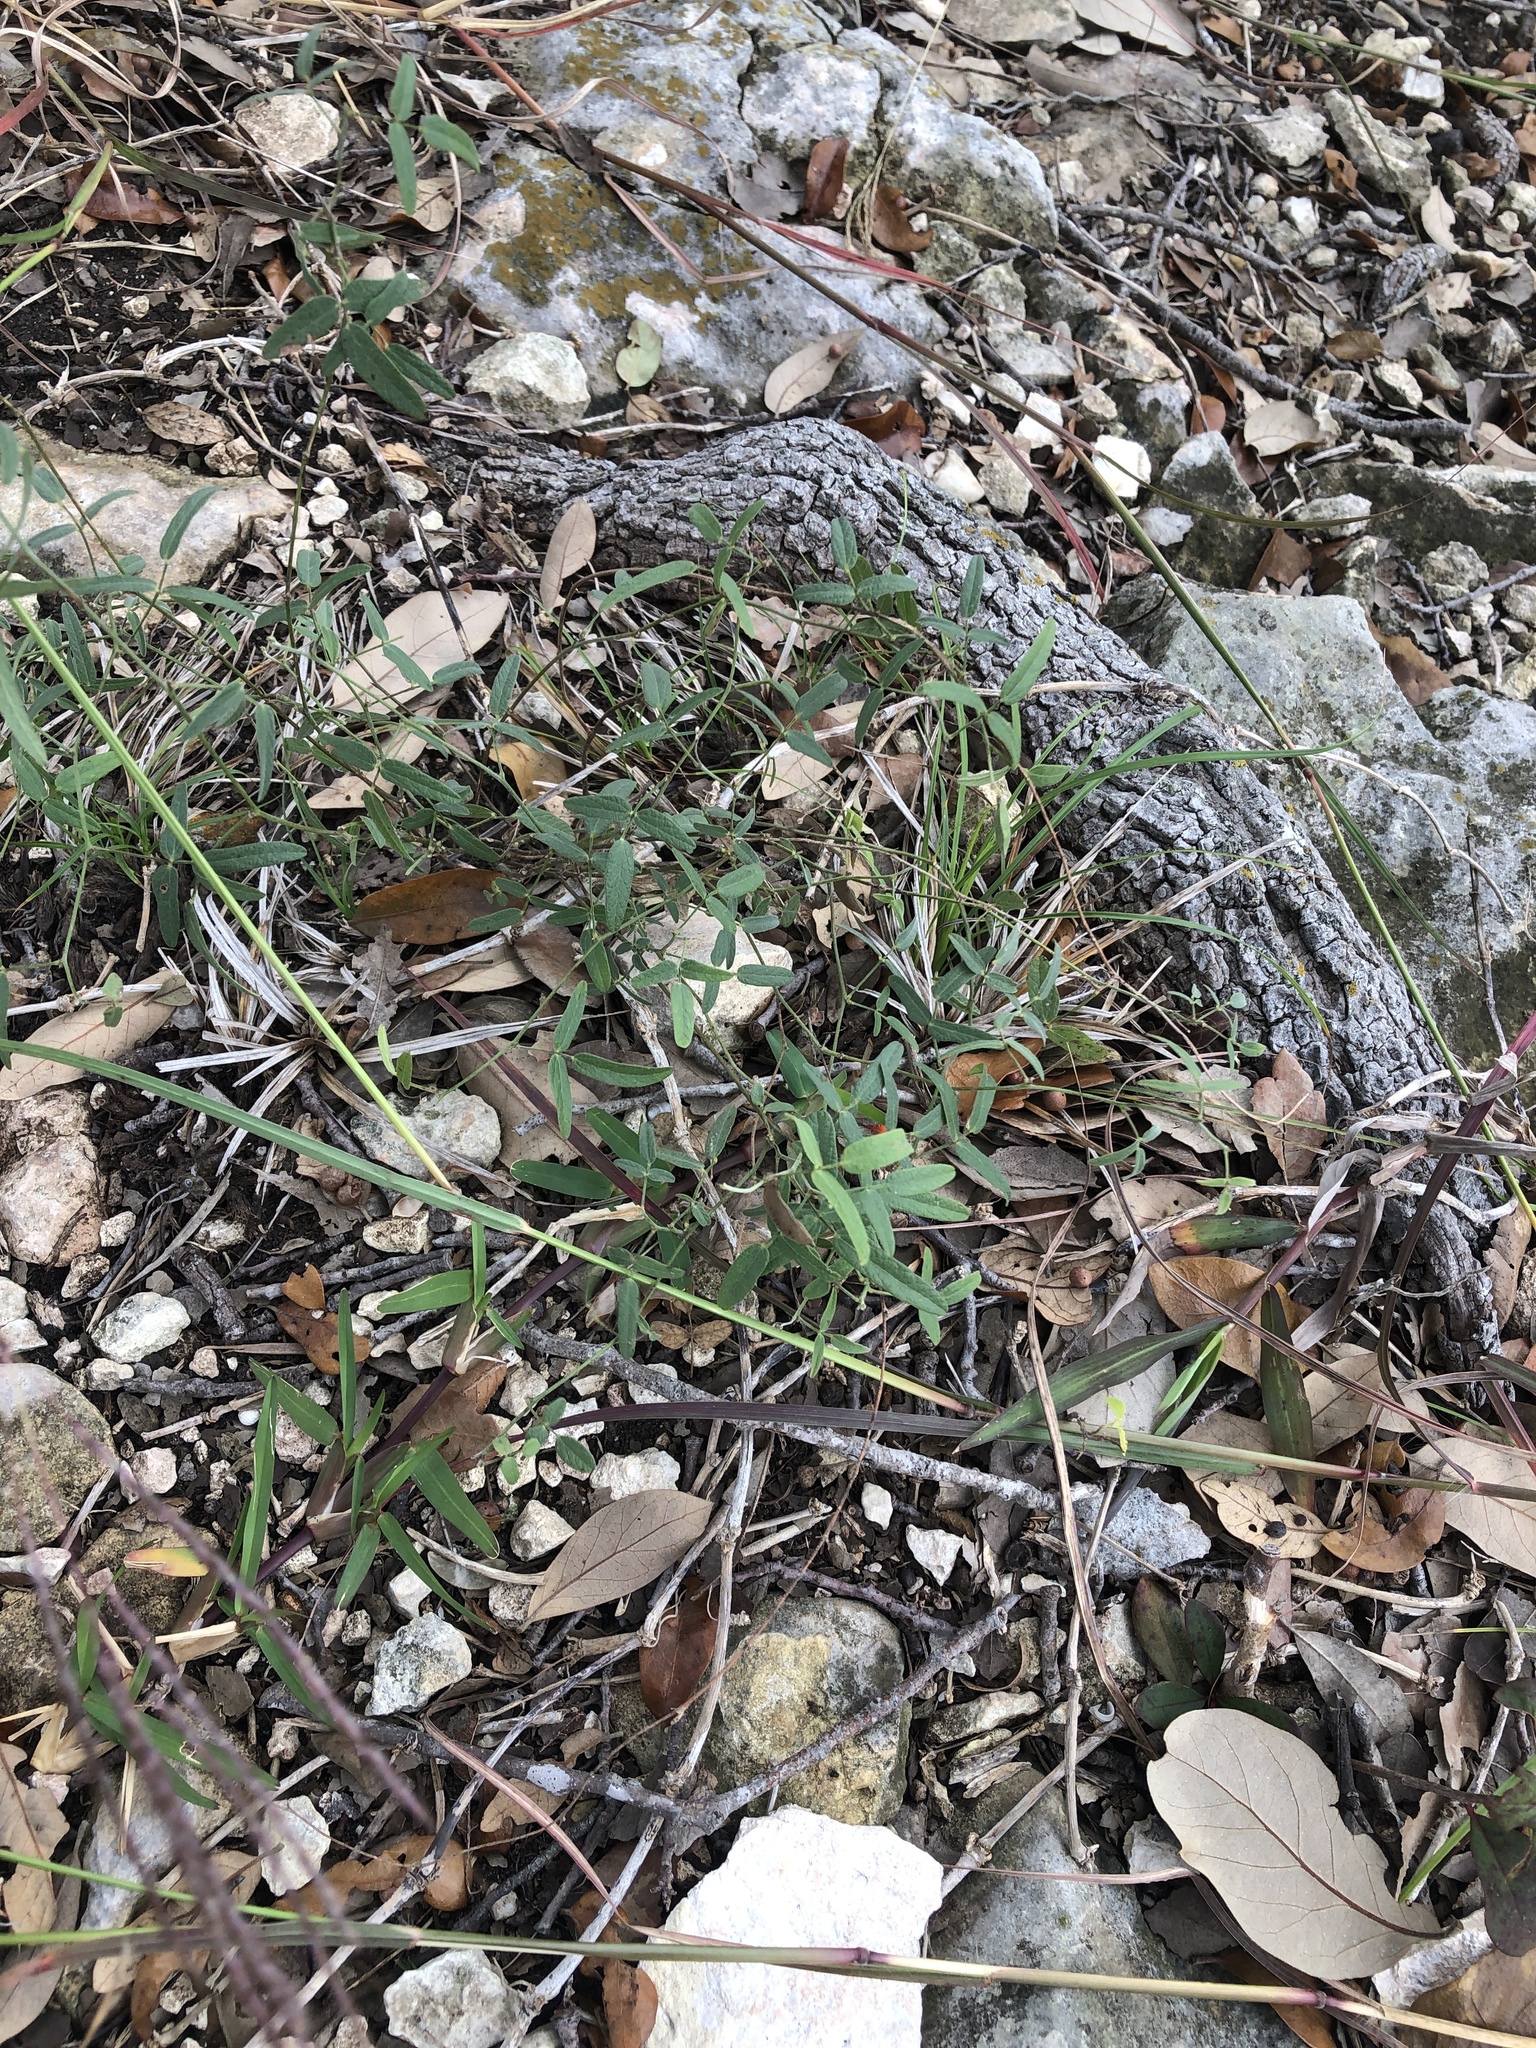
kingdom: Plantae
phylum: Tracheophyta
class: Magnoliopsida
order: Fabales
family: Fabaceae
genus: Rhynchosia
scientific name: Rhynchosia senna
